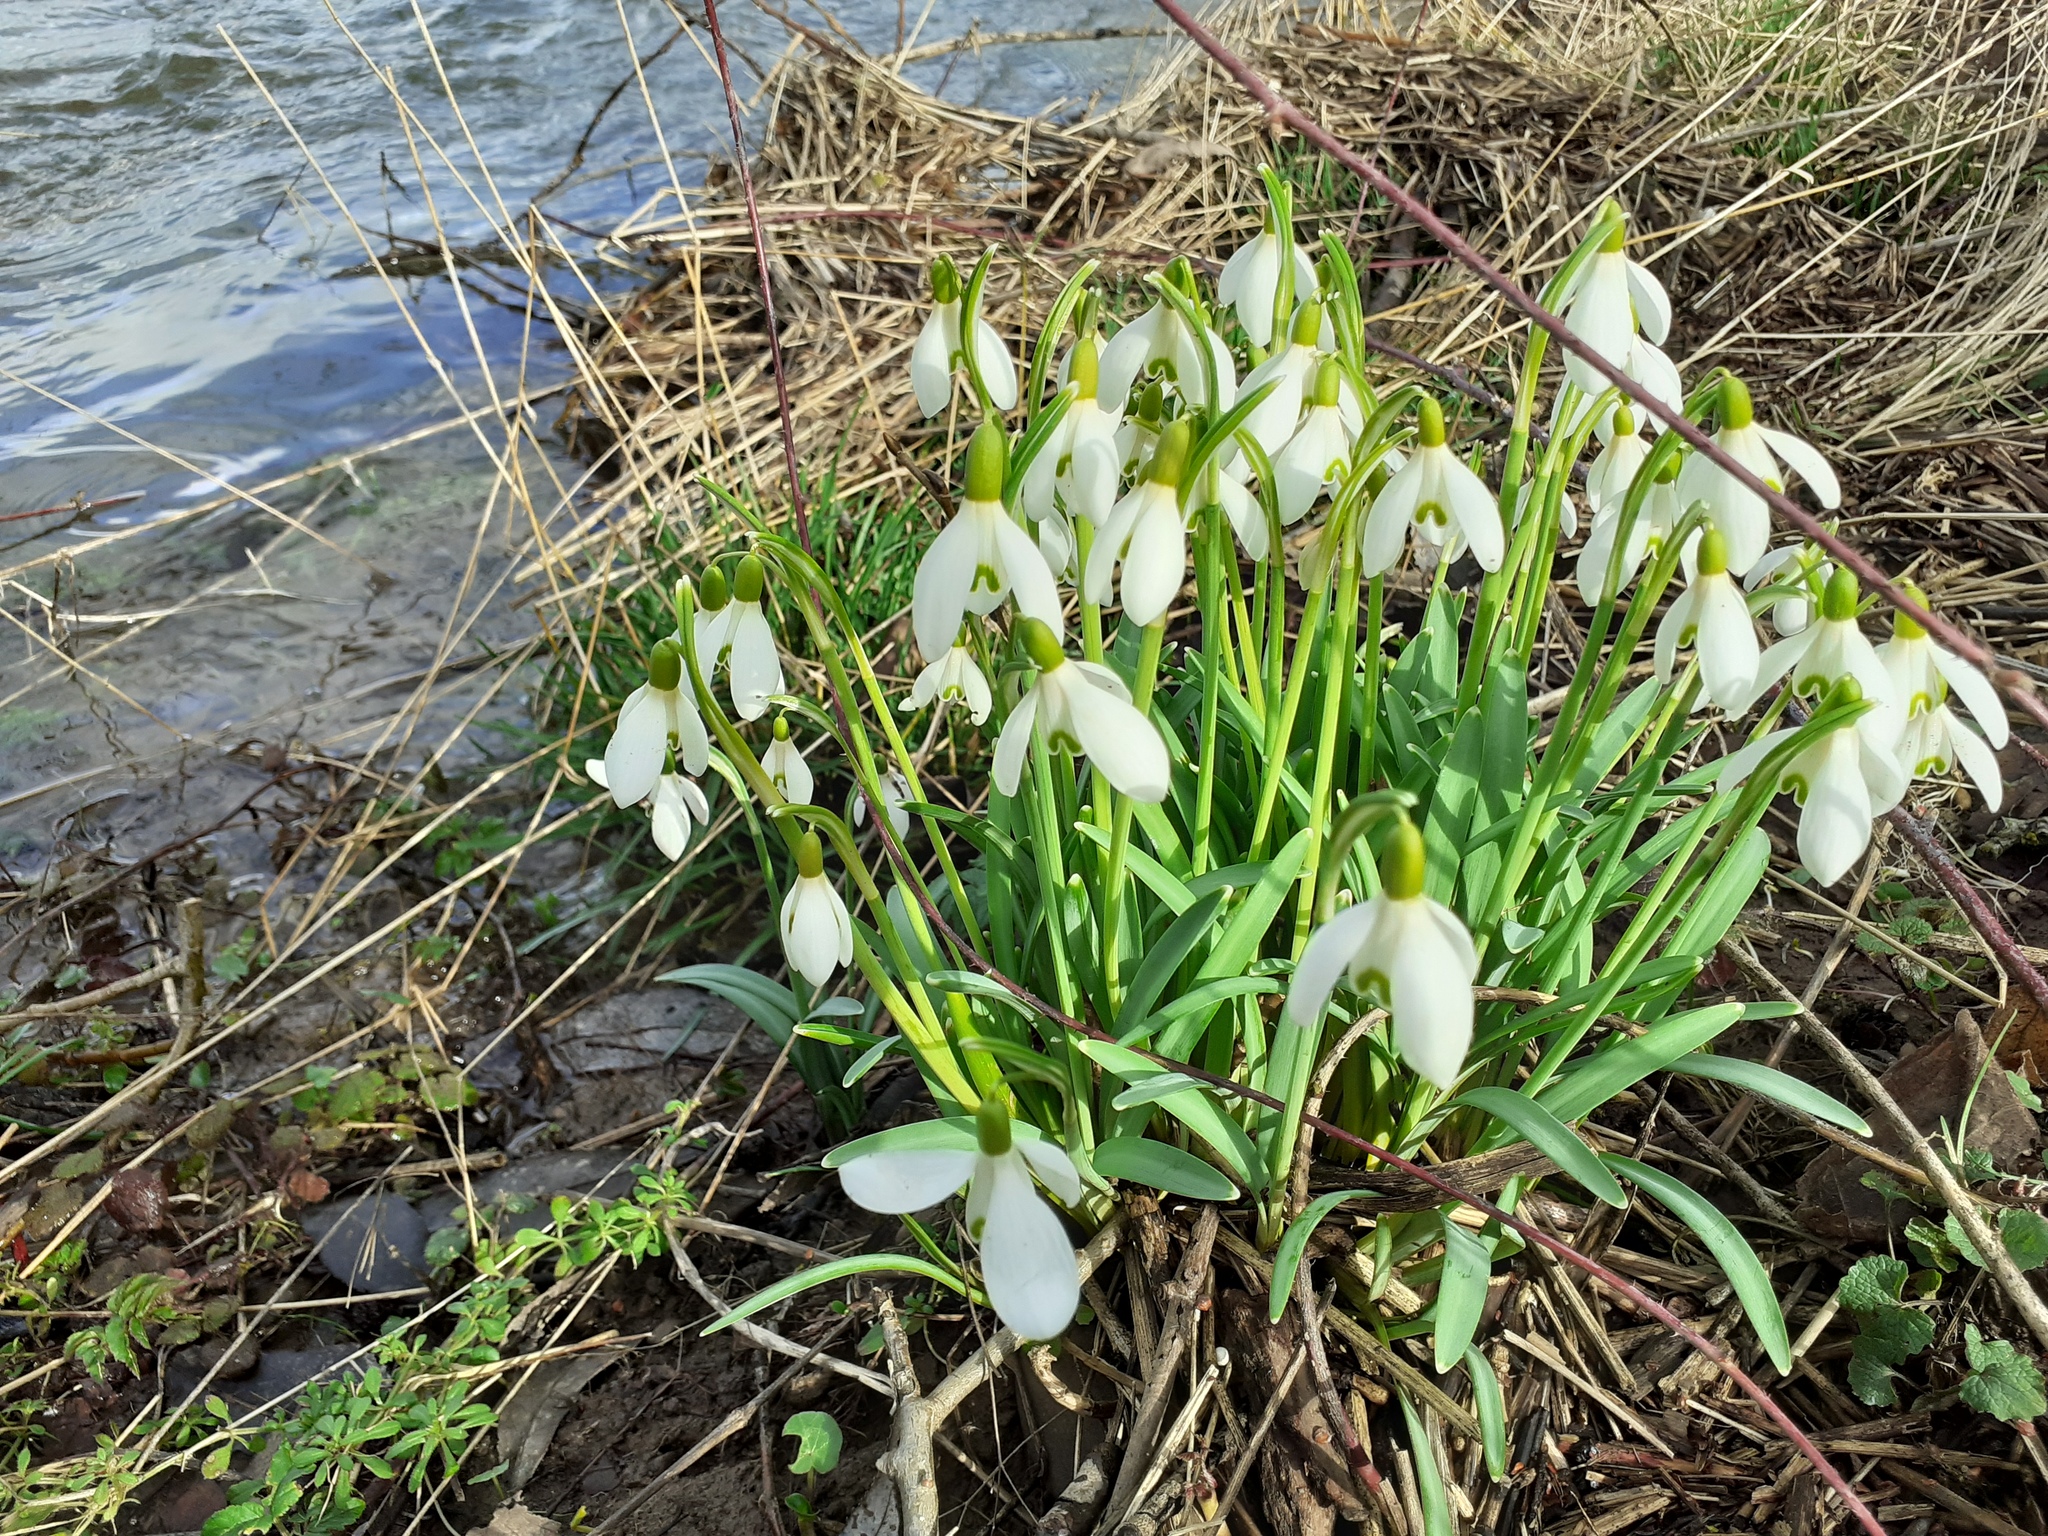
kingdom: Plantae
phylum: Tracheophyta
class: Liliopsida
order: Asparagales
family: Amaryllidaceae
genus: Galanthus
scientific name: Galanthus nivalis
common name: Snowdrop
